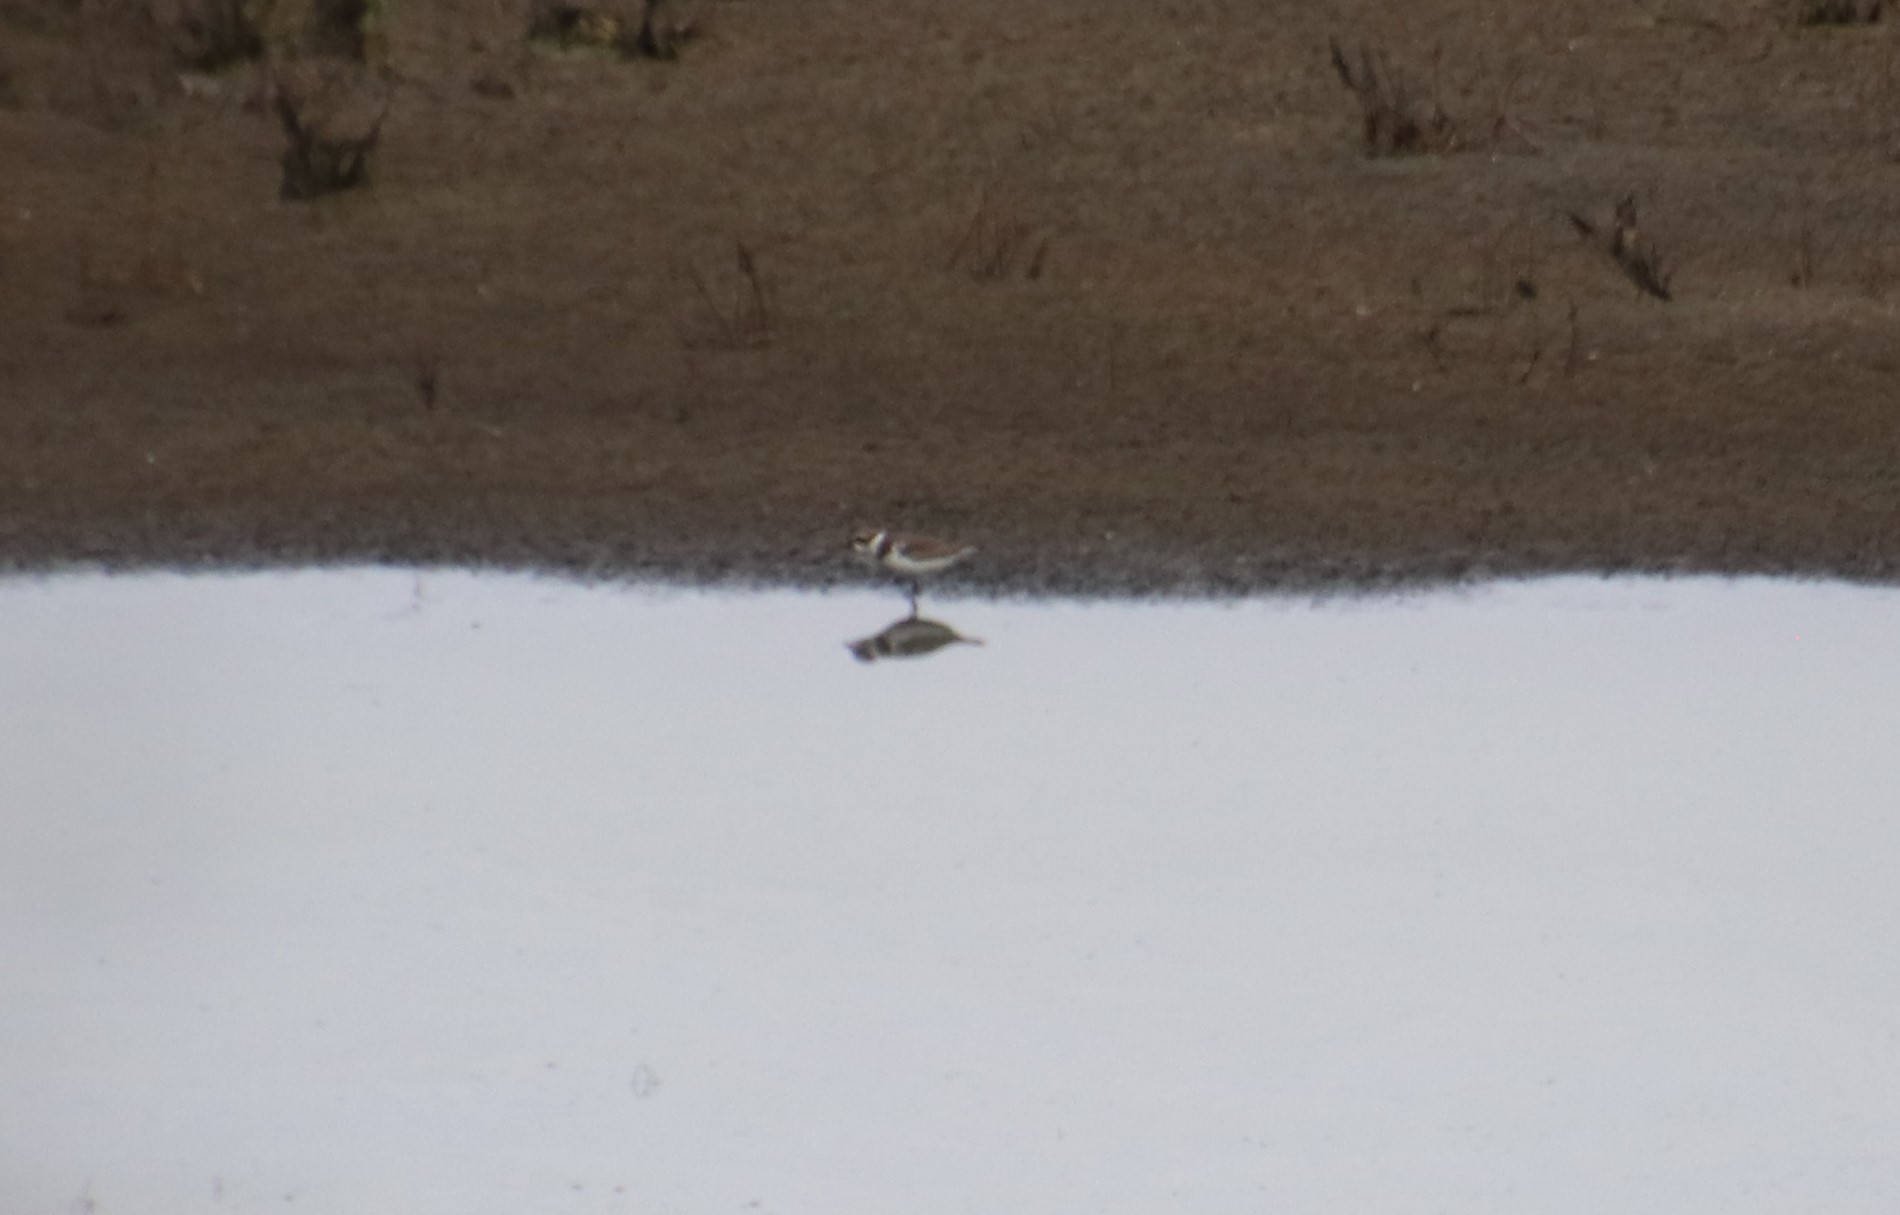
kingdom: Animalia
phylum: Chordata
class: Aves
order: Charadriiformes
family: Charadriidae
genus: Charadrius
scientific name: Charadrius semipalmatus
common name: Semipalmated plover
